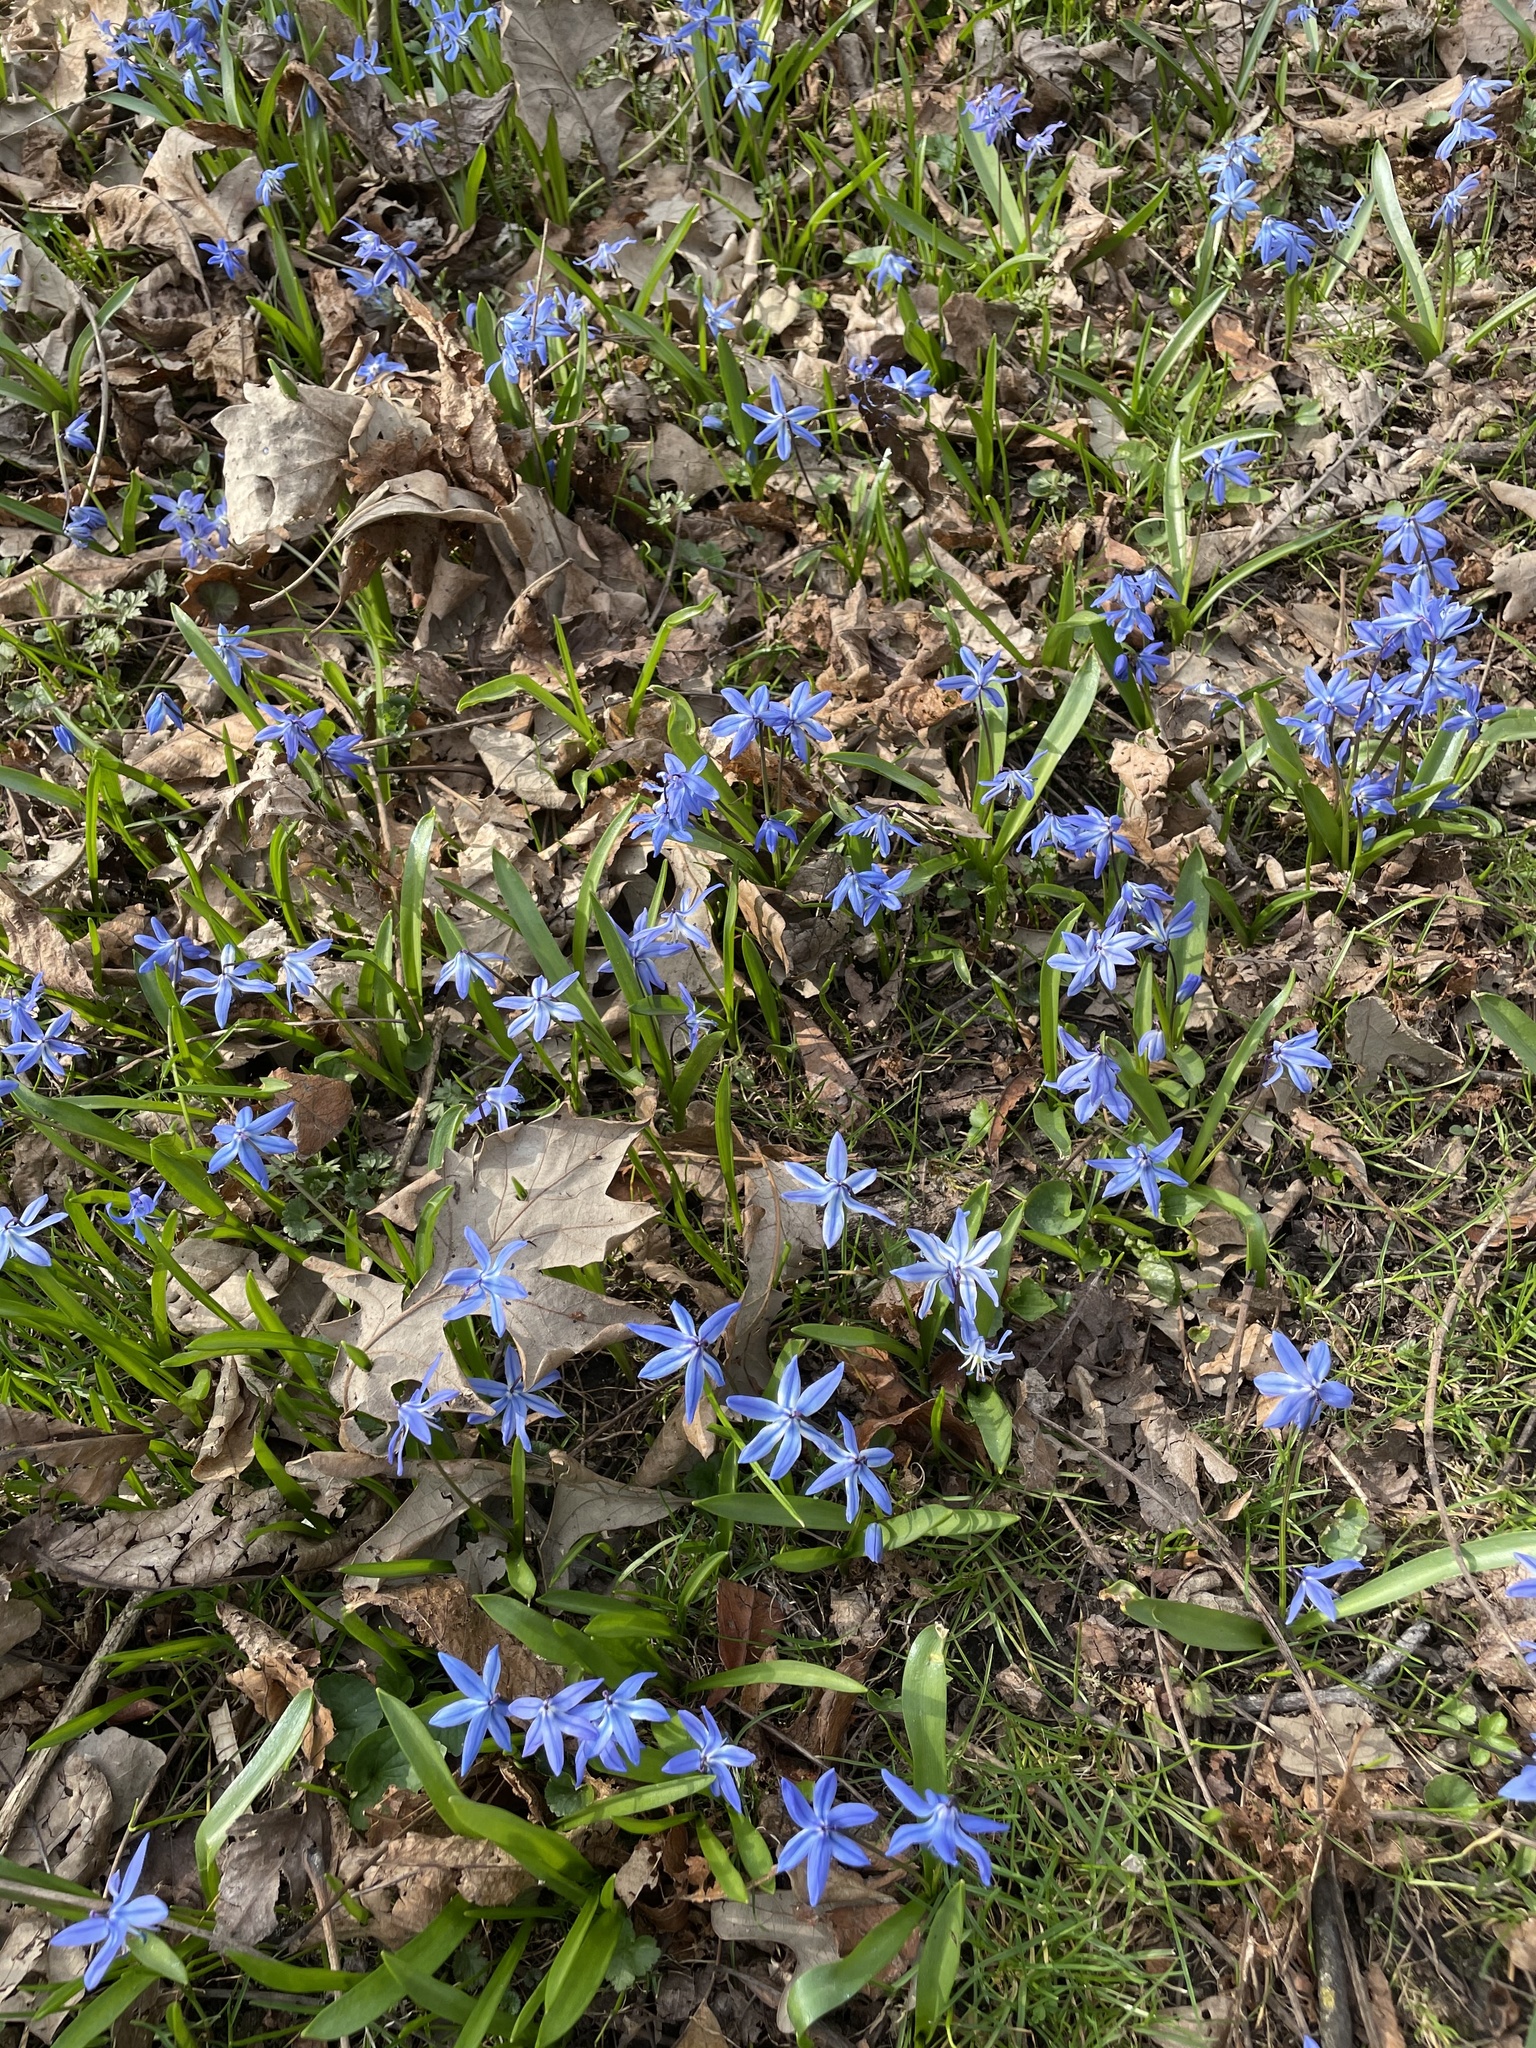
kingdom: Plantae
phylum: Tracheophyta
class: Liliopsida
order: Asparagales
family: Asparagaceae
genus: Scilla
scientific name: Scilla siberica
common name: Siberian squill
